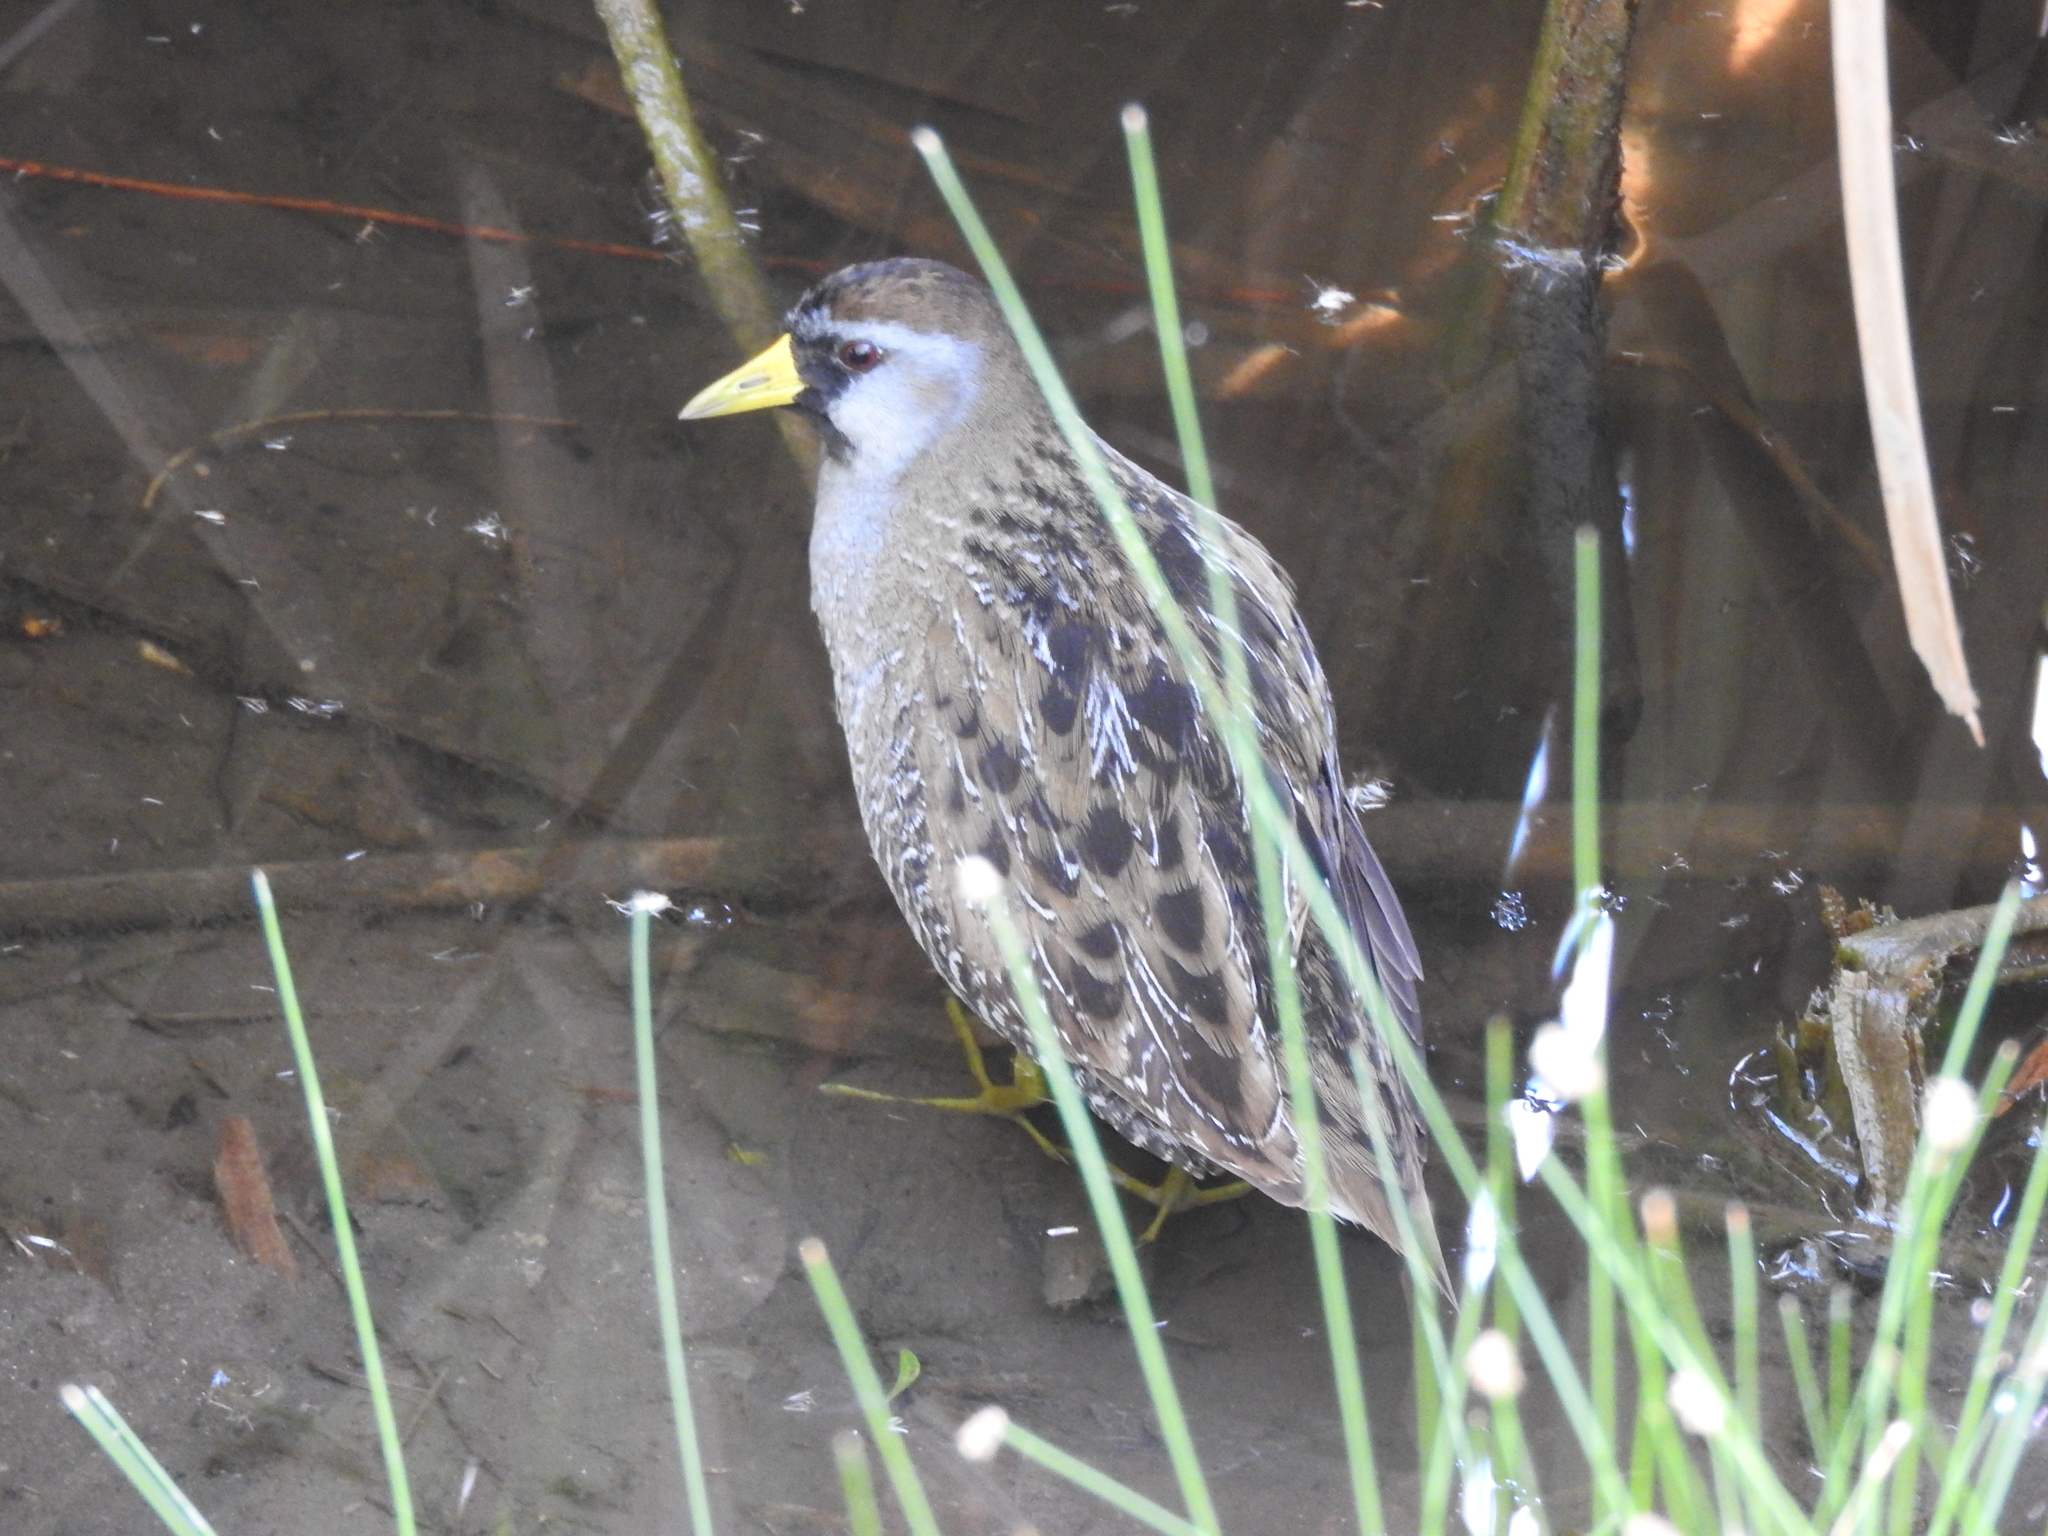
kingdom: Animalia
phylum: Chordata
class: Aves
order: Gruiformes
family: Rallidae
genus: Porzana
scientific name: Porzana carolina
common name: Sora
